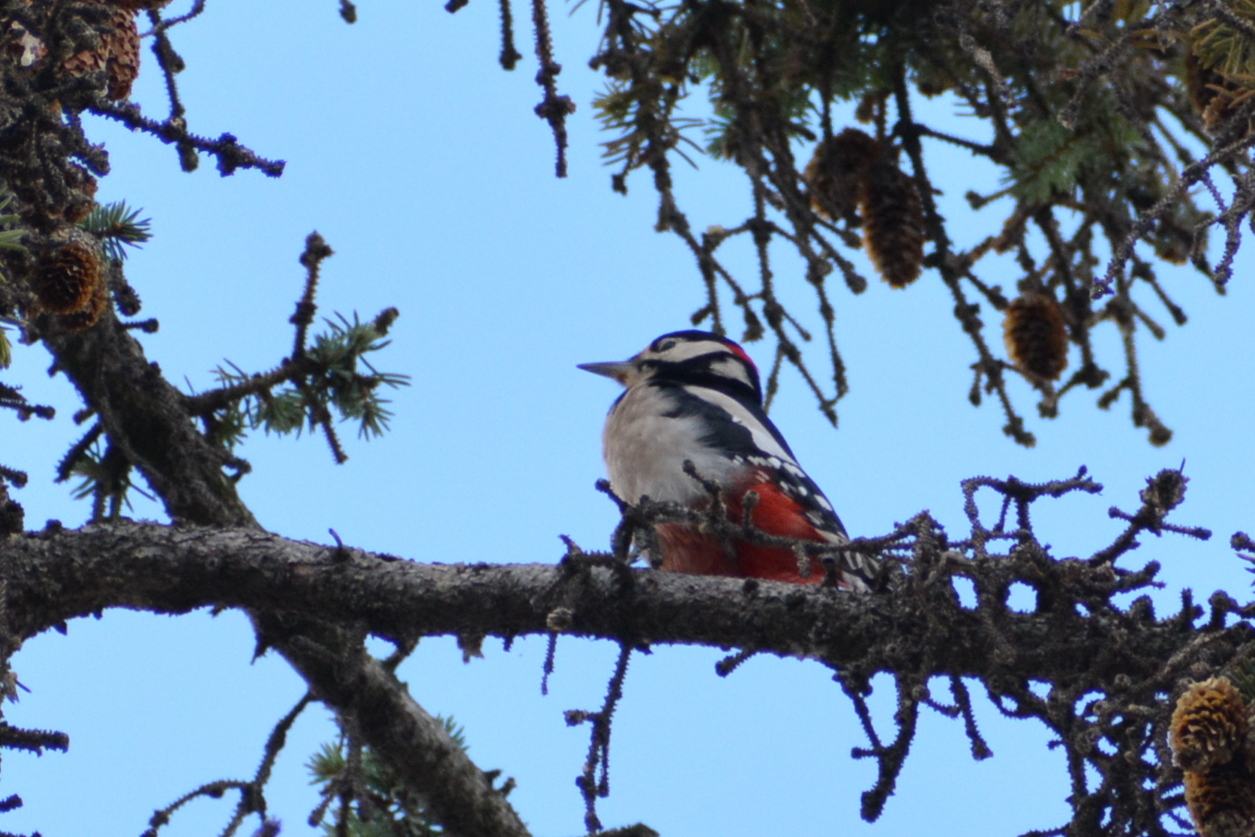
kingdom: Animalia
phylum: Chordata
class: Aves
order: Piciformes
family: Picidae
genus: Dendrocopos
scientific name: Dendrocopos major
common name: Great spotted woodpecker
